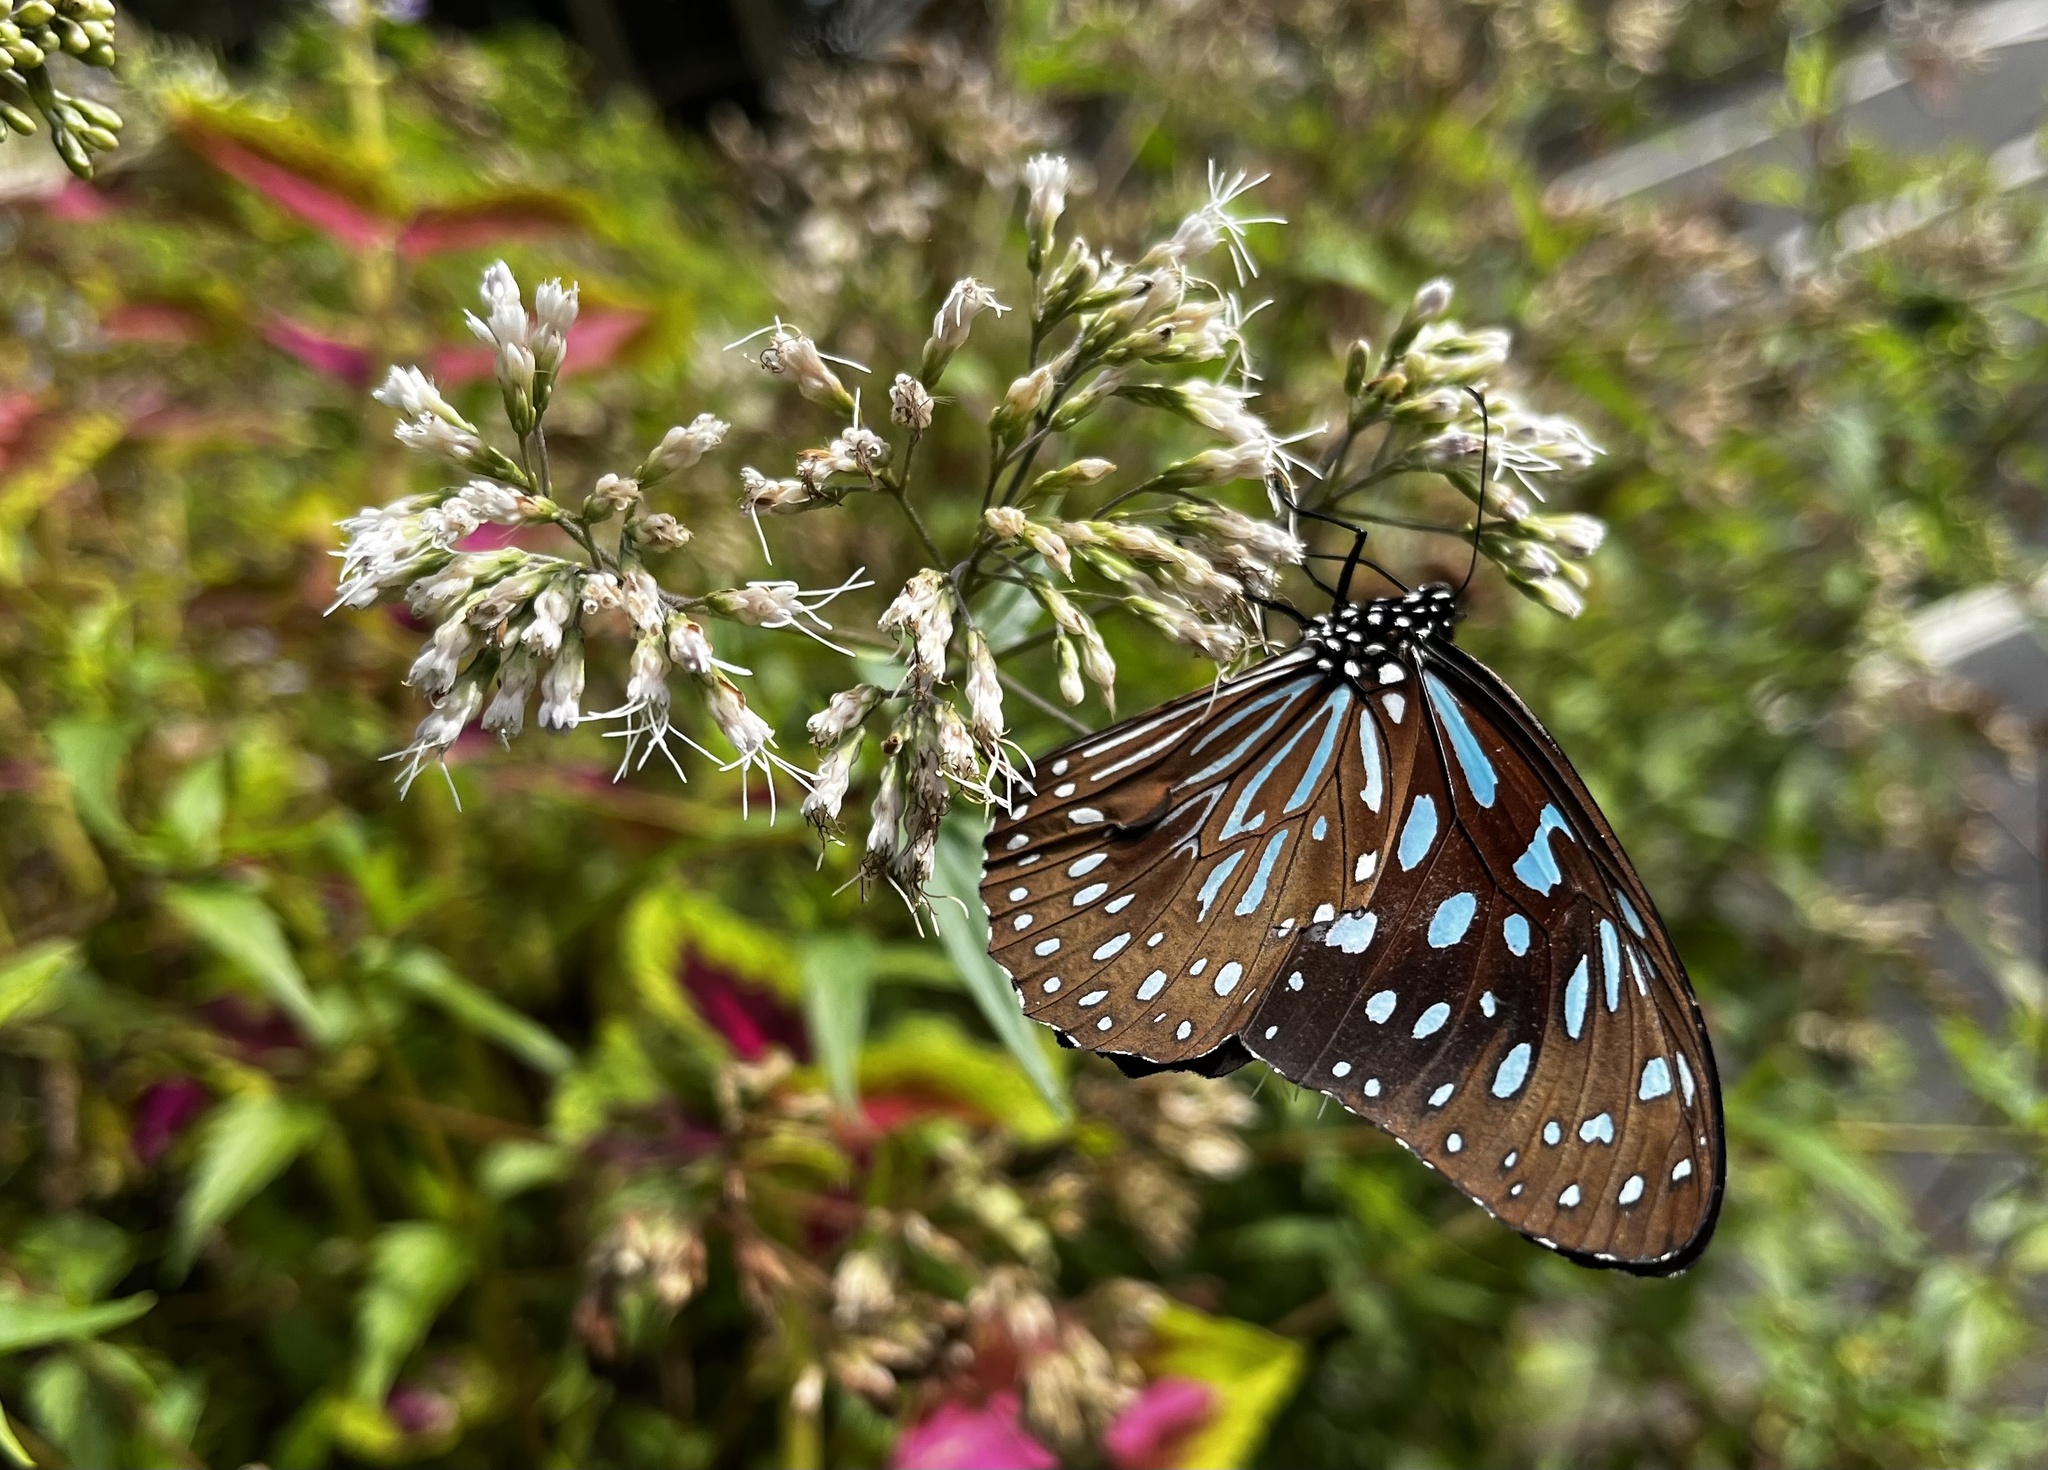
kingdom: Animalia
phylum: Arthropoda
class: Insecta
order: Lepidoptera
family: Nymphalidae
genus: Tirumala
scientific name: Tirumala septentrionis
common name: Dark blue tiger butterfly
